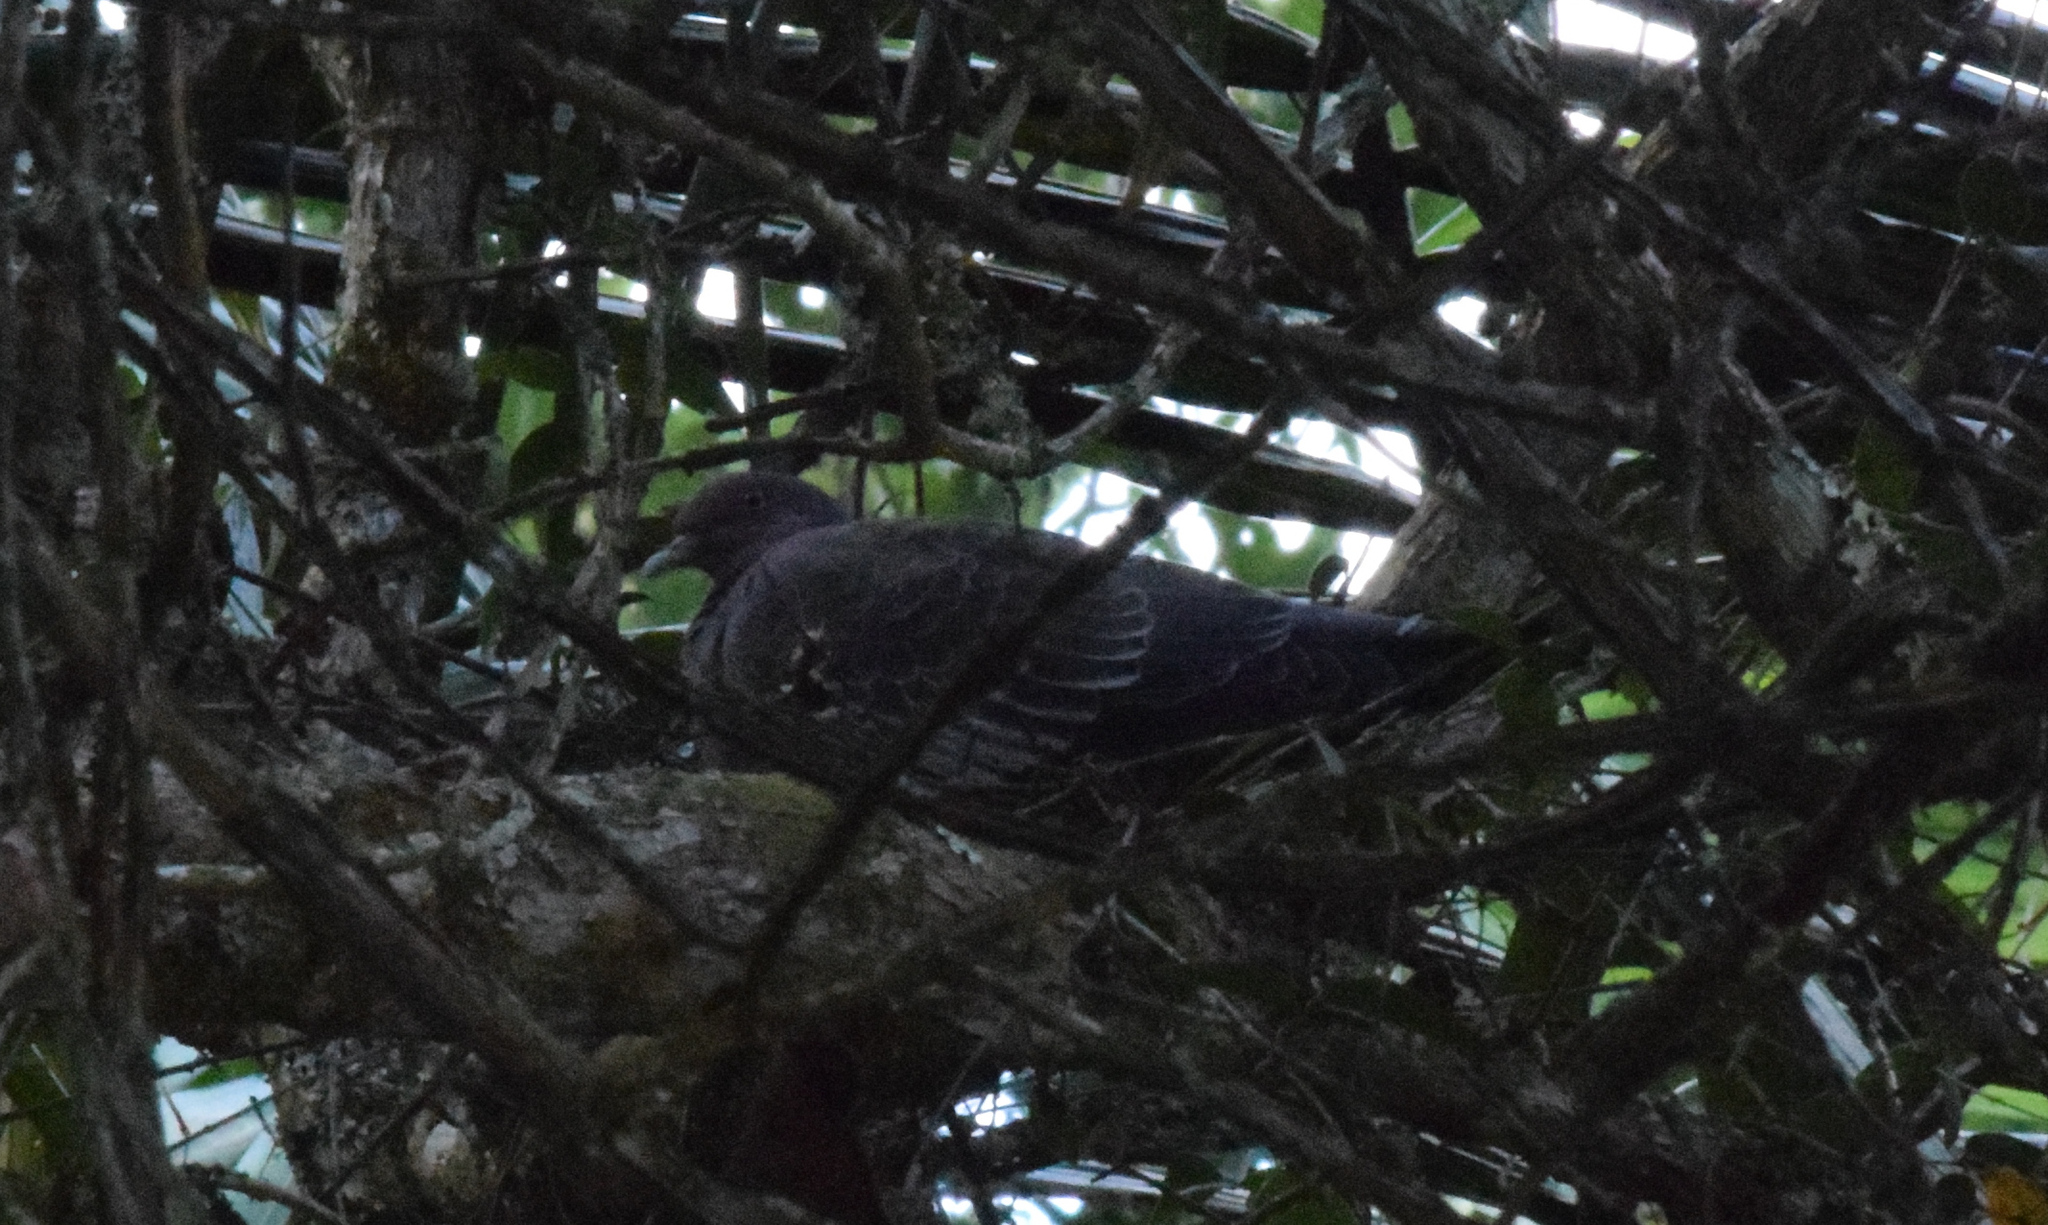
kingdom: Animalia
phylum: Chordata
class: Aves
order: Columbiformes
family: Columbidae
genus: Patagioenas
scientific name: Patagioenas picazuro
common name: Picazuro pigeon
